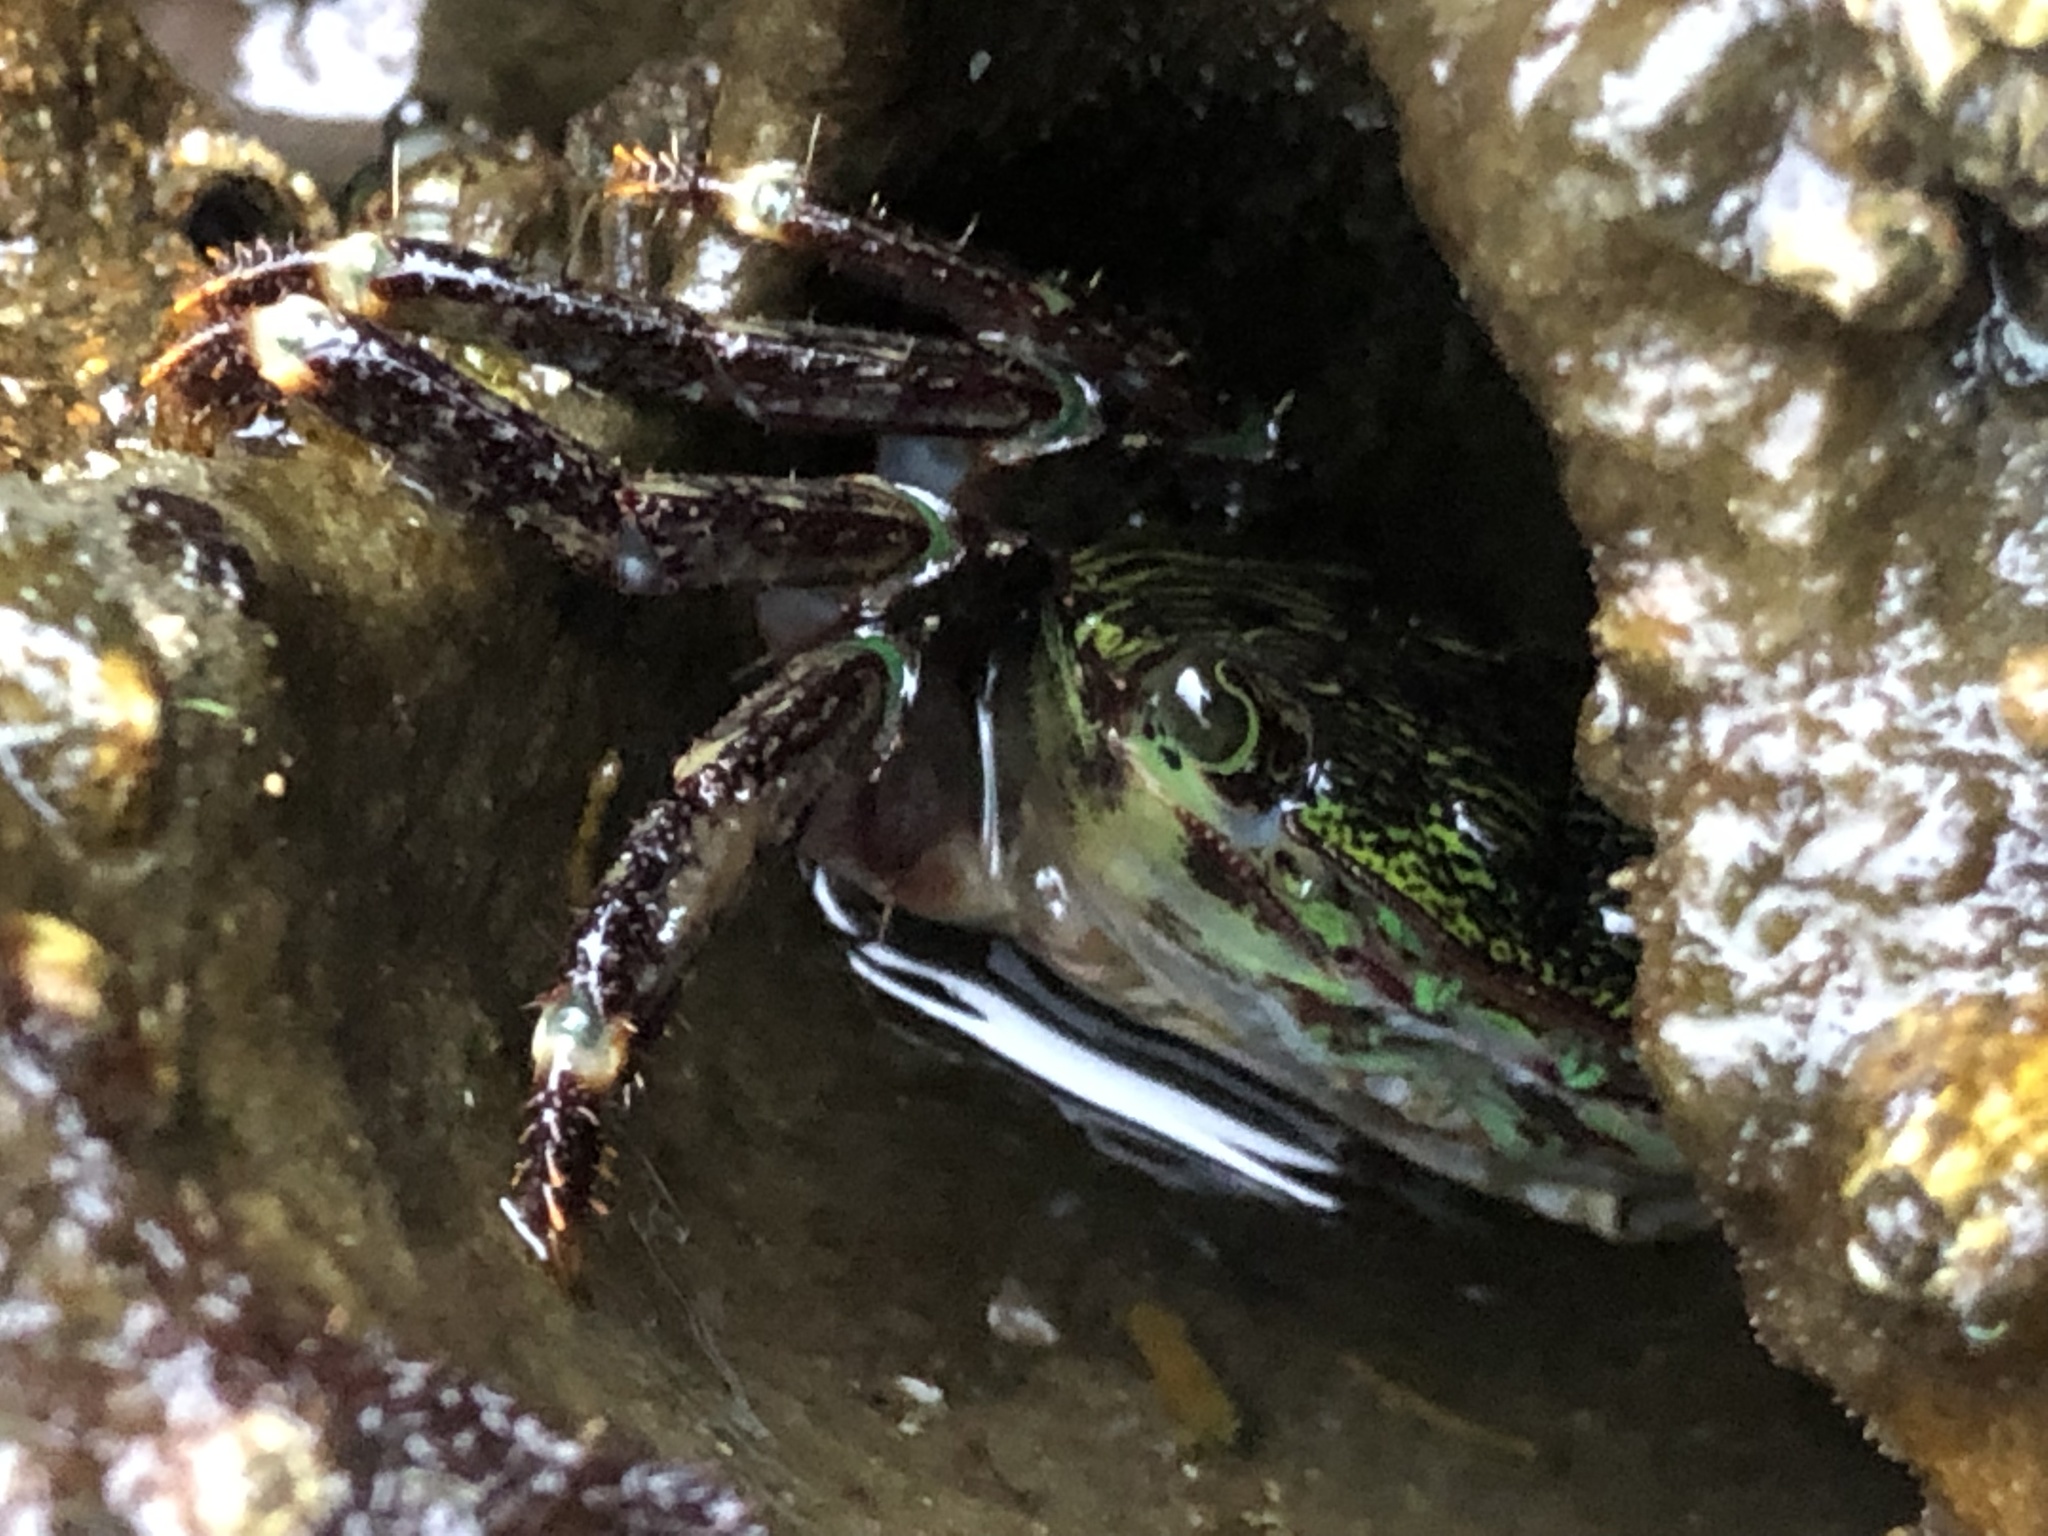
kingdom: Animalia
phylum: Arthropoda
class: Malacostraca
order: Decapoda
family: Grapsidae
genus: Pachygrapsus
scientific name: Pachygrapsus crassipes
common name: Striped shore crab
